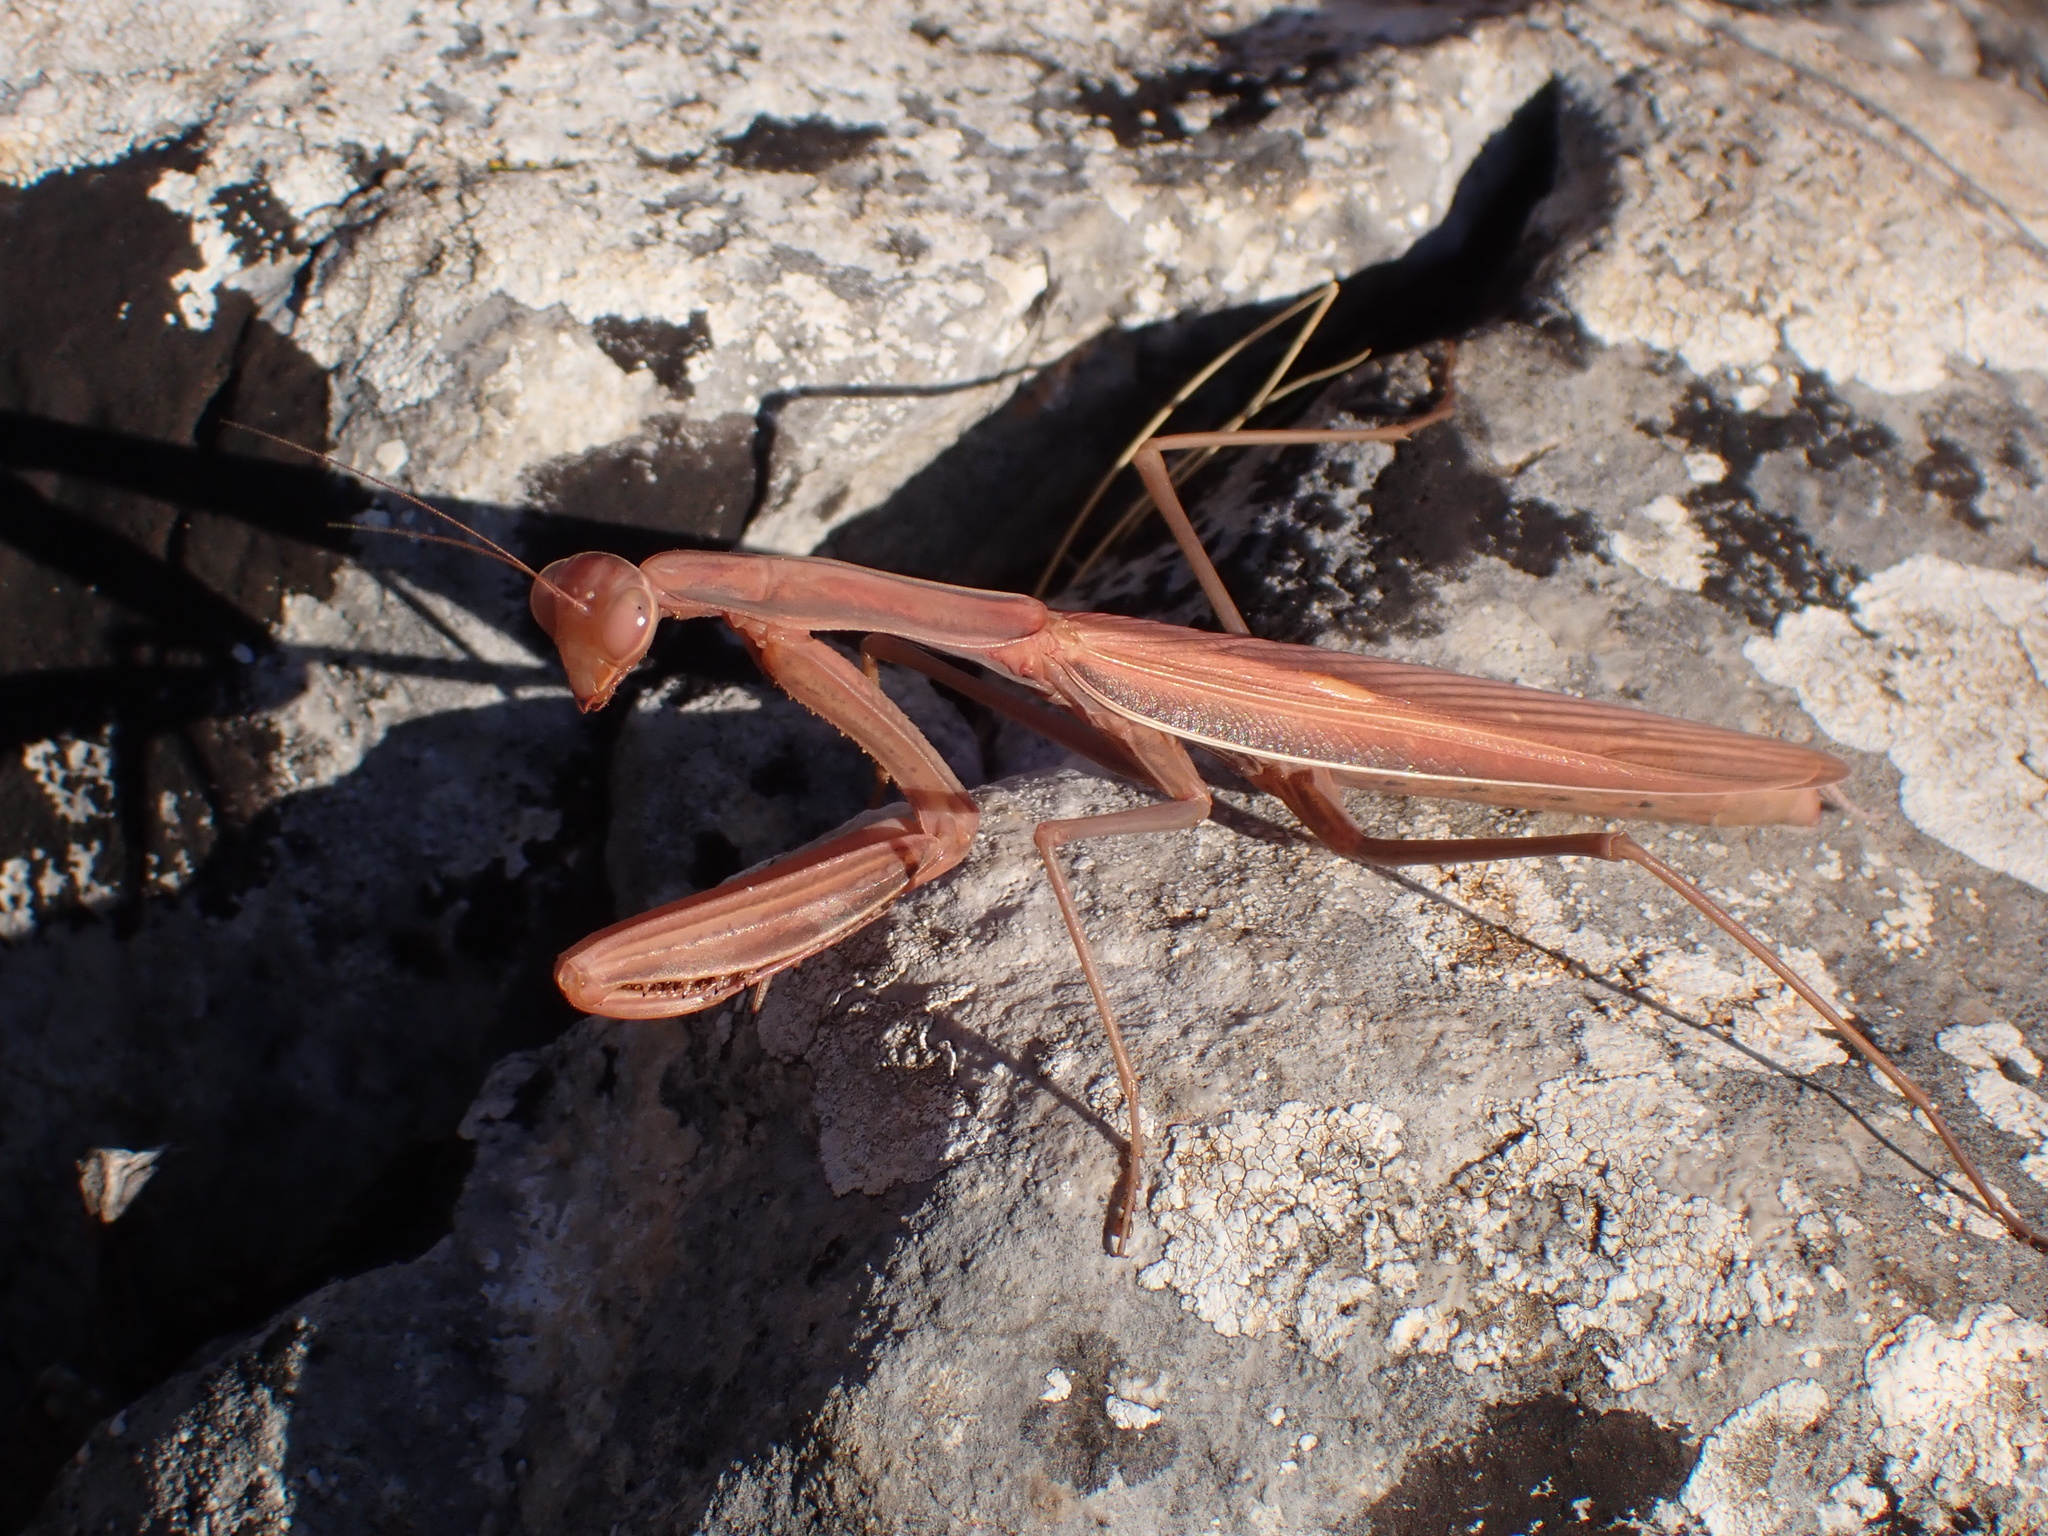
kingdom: Animalia
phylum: Arthropoda
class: Insecta
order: Mantodea
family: Mantidae
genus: Mantis
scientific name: Mantis religiosa
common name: Praying mantis
